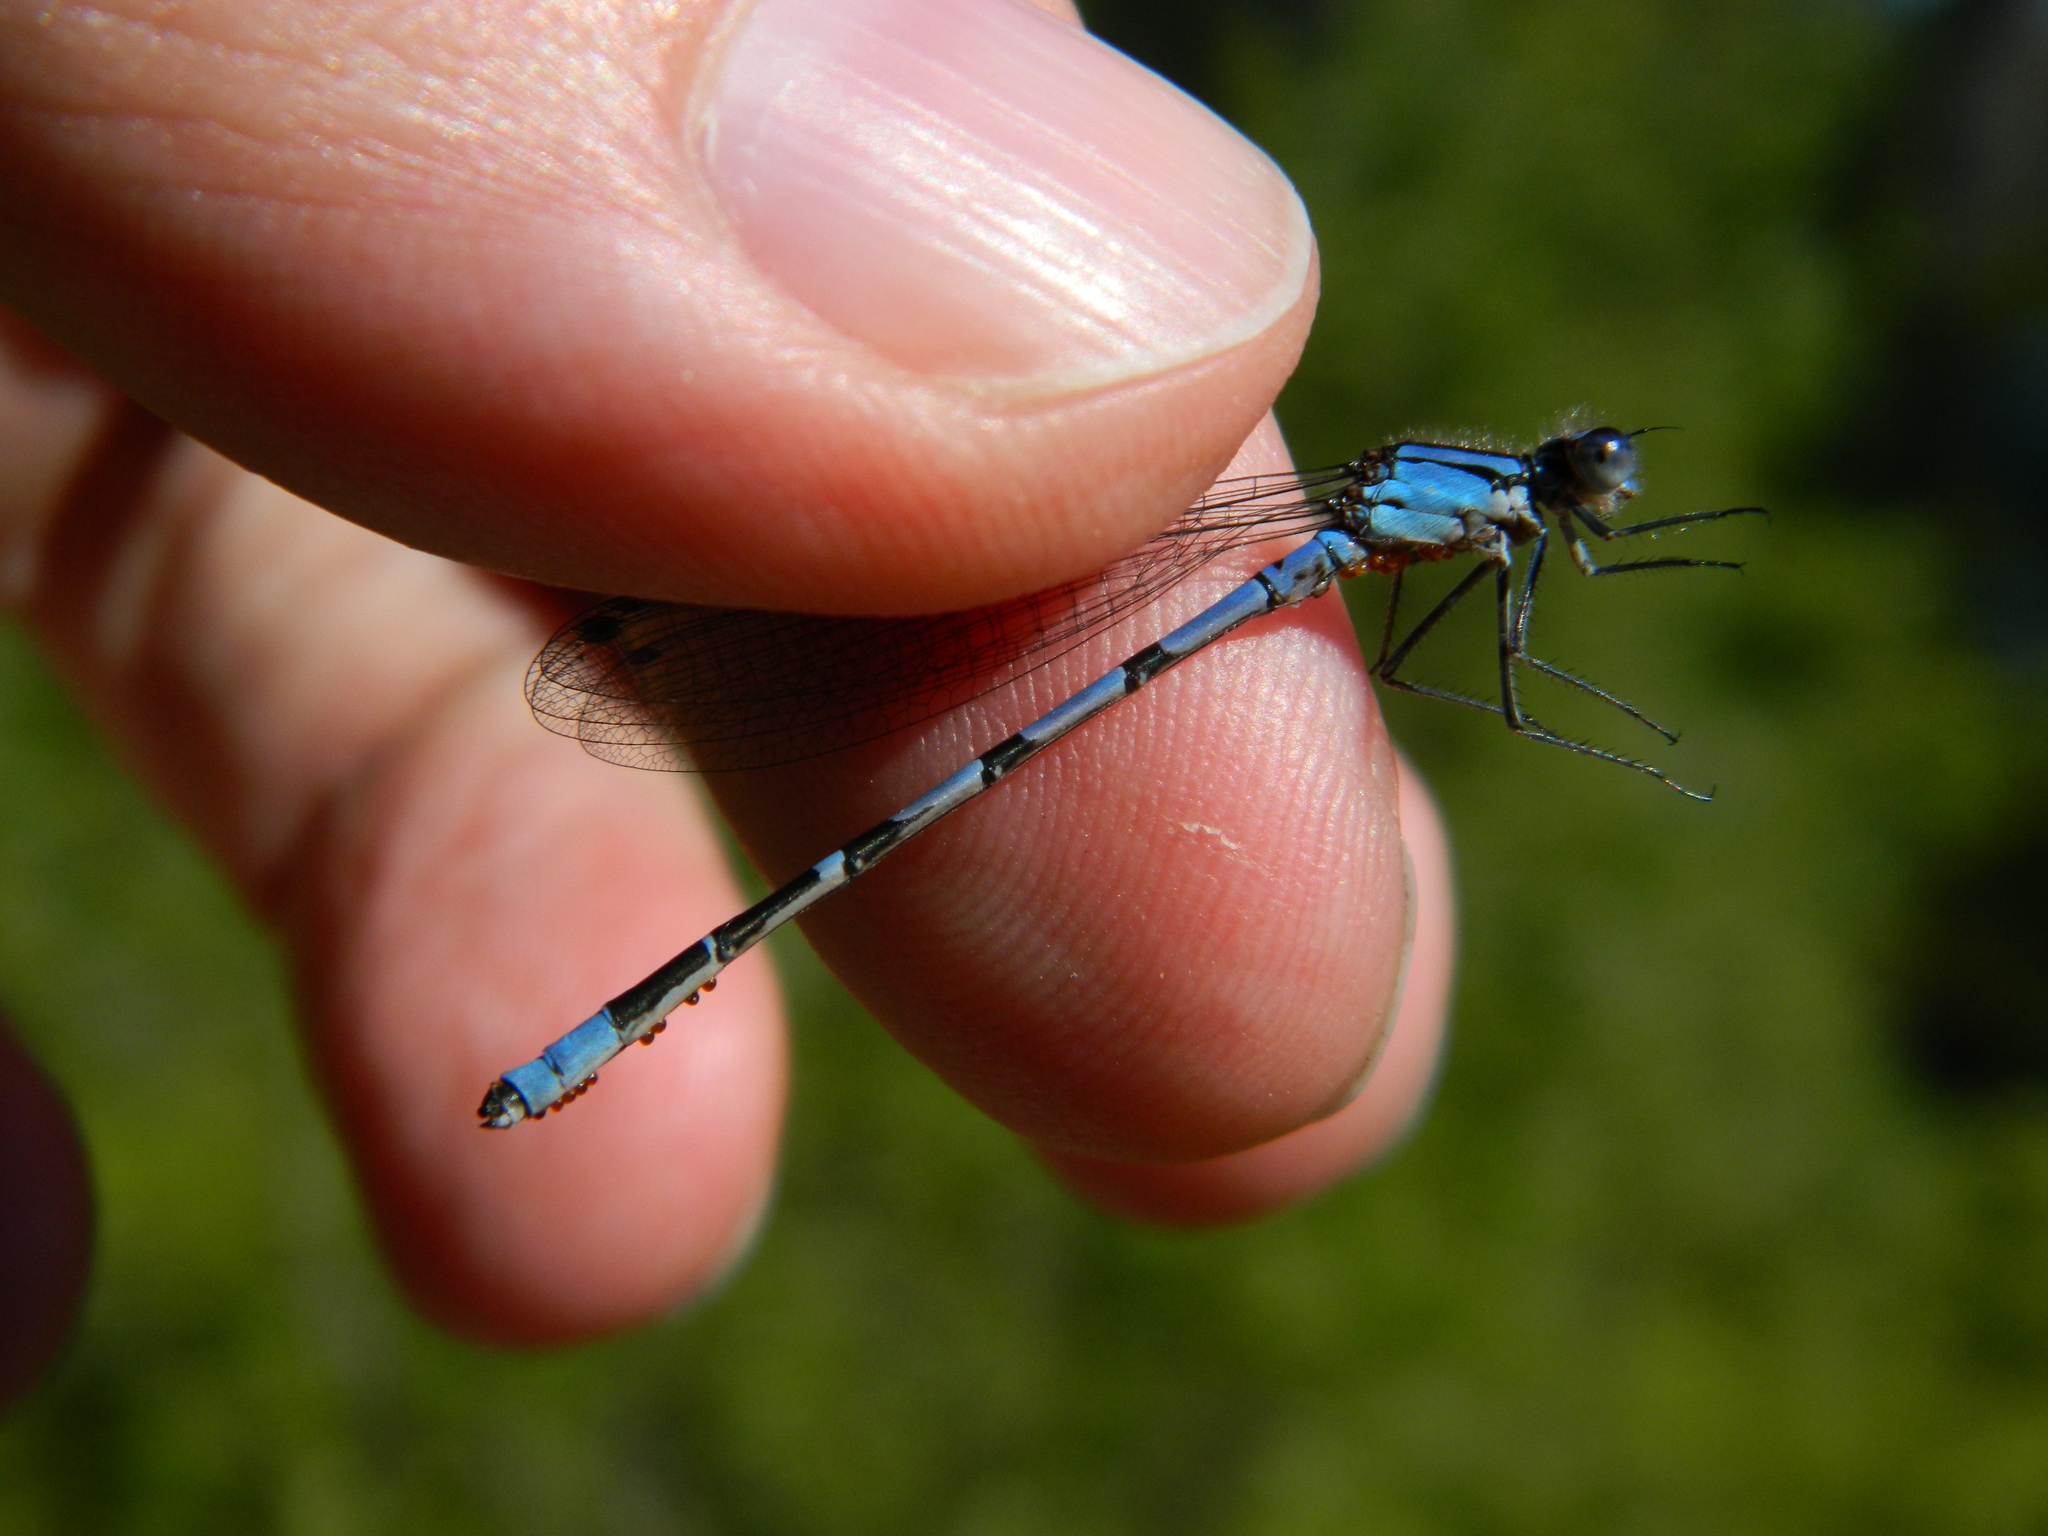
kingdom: Animalia
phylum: Arthropoda
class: Insecta
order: Odonata
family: Coenagrionidae
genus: Enallagma
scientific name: Enallagma
